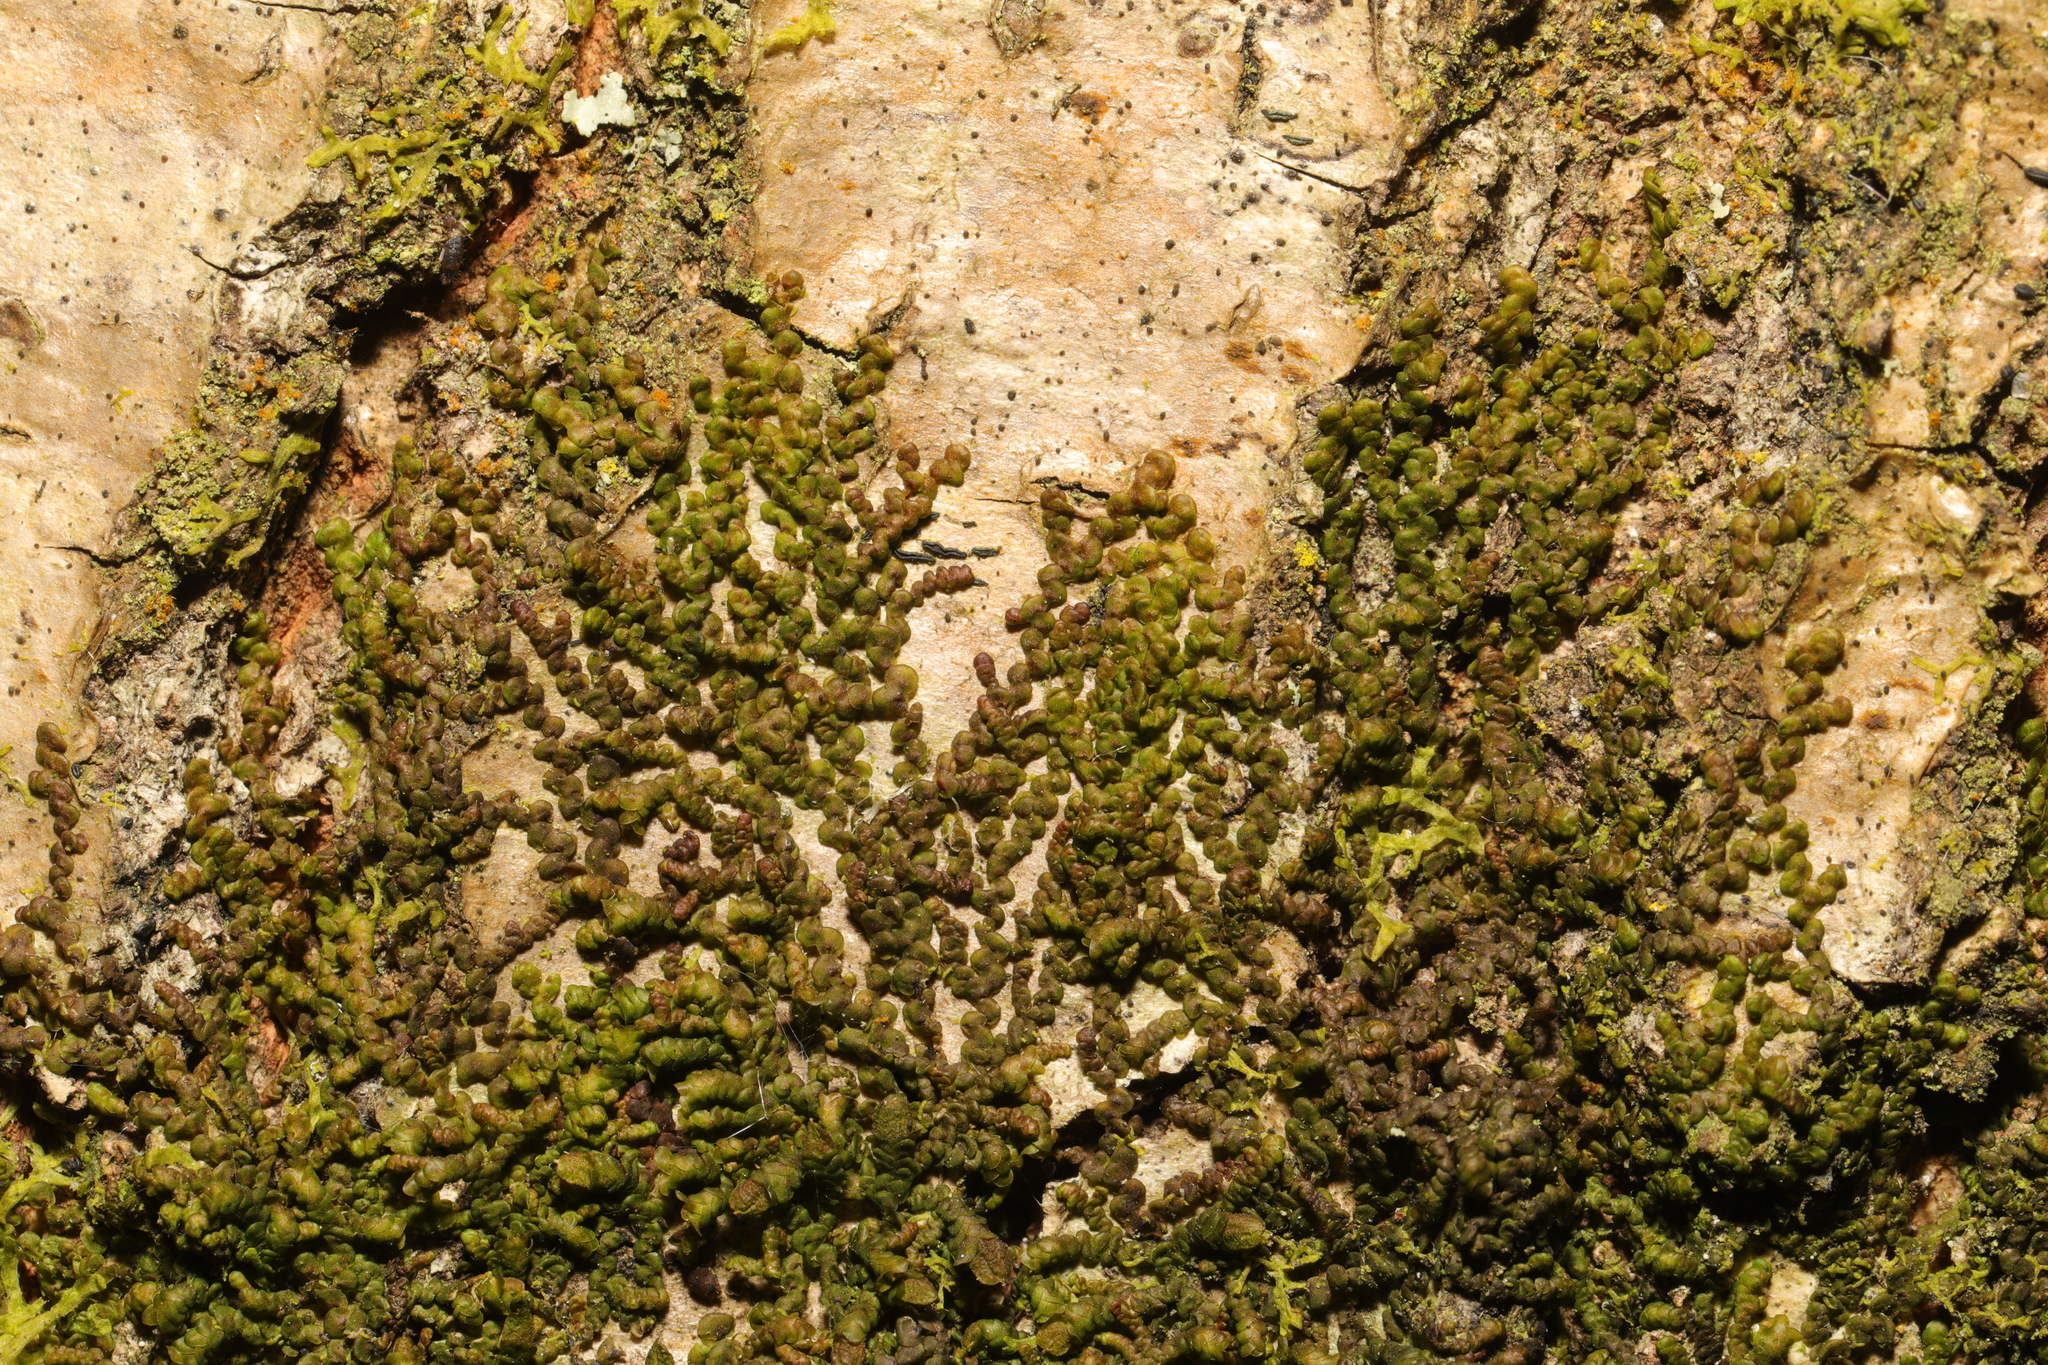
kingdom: Plantae
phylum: Marchantiophyta
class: Jungermanniopsida
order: Porellales
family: Frullaniaceae
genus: Frullania
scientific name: Frullania dilatata
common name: Dilated scalewort
